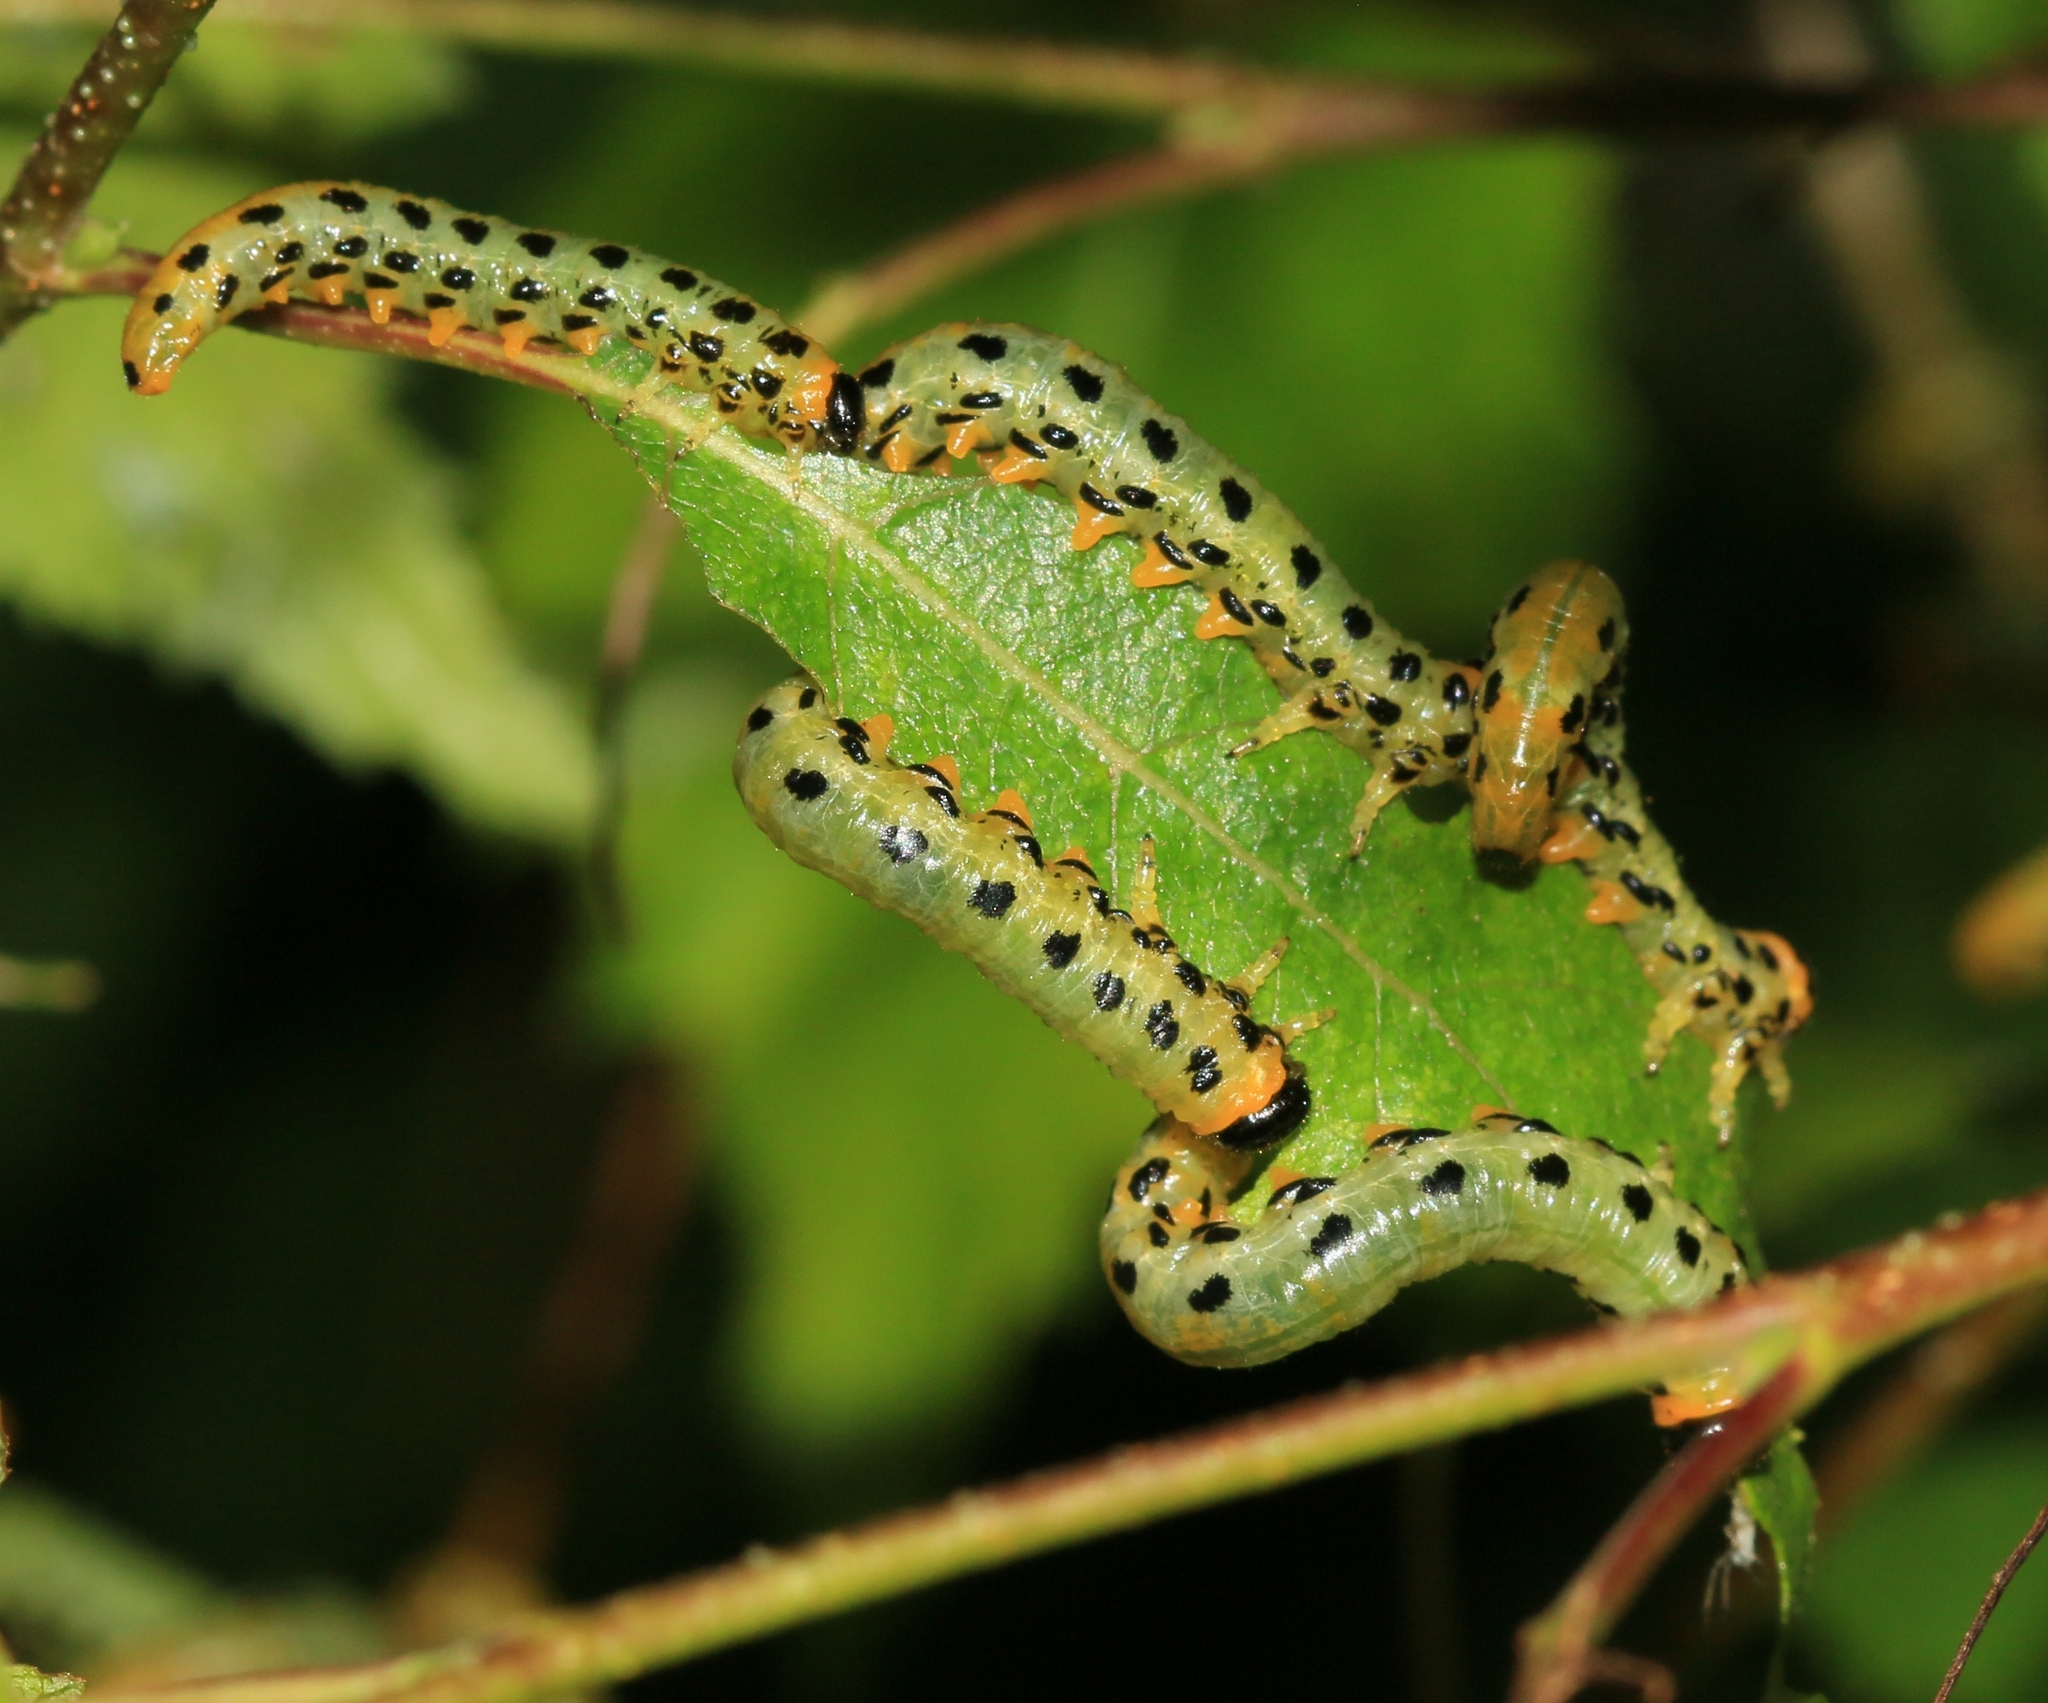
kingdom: Animalia
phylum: Arthropoda
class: Insecta
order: Hymenoptera
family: Tenthredinidae
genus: Craesus
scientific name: Craesus septentrionalis
